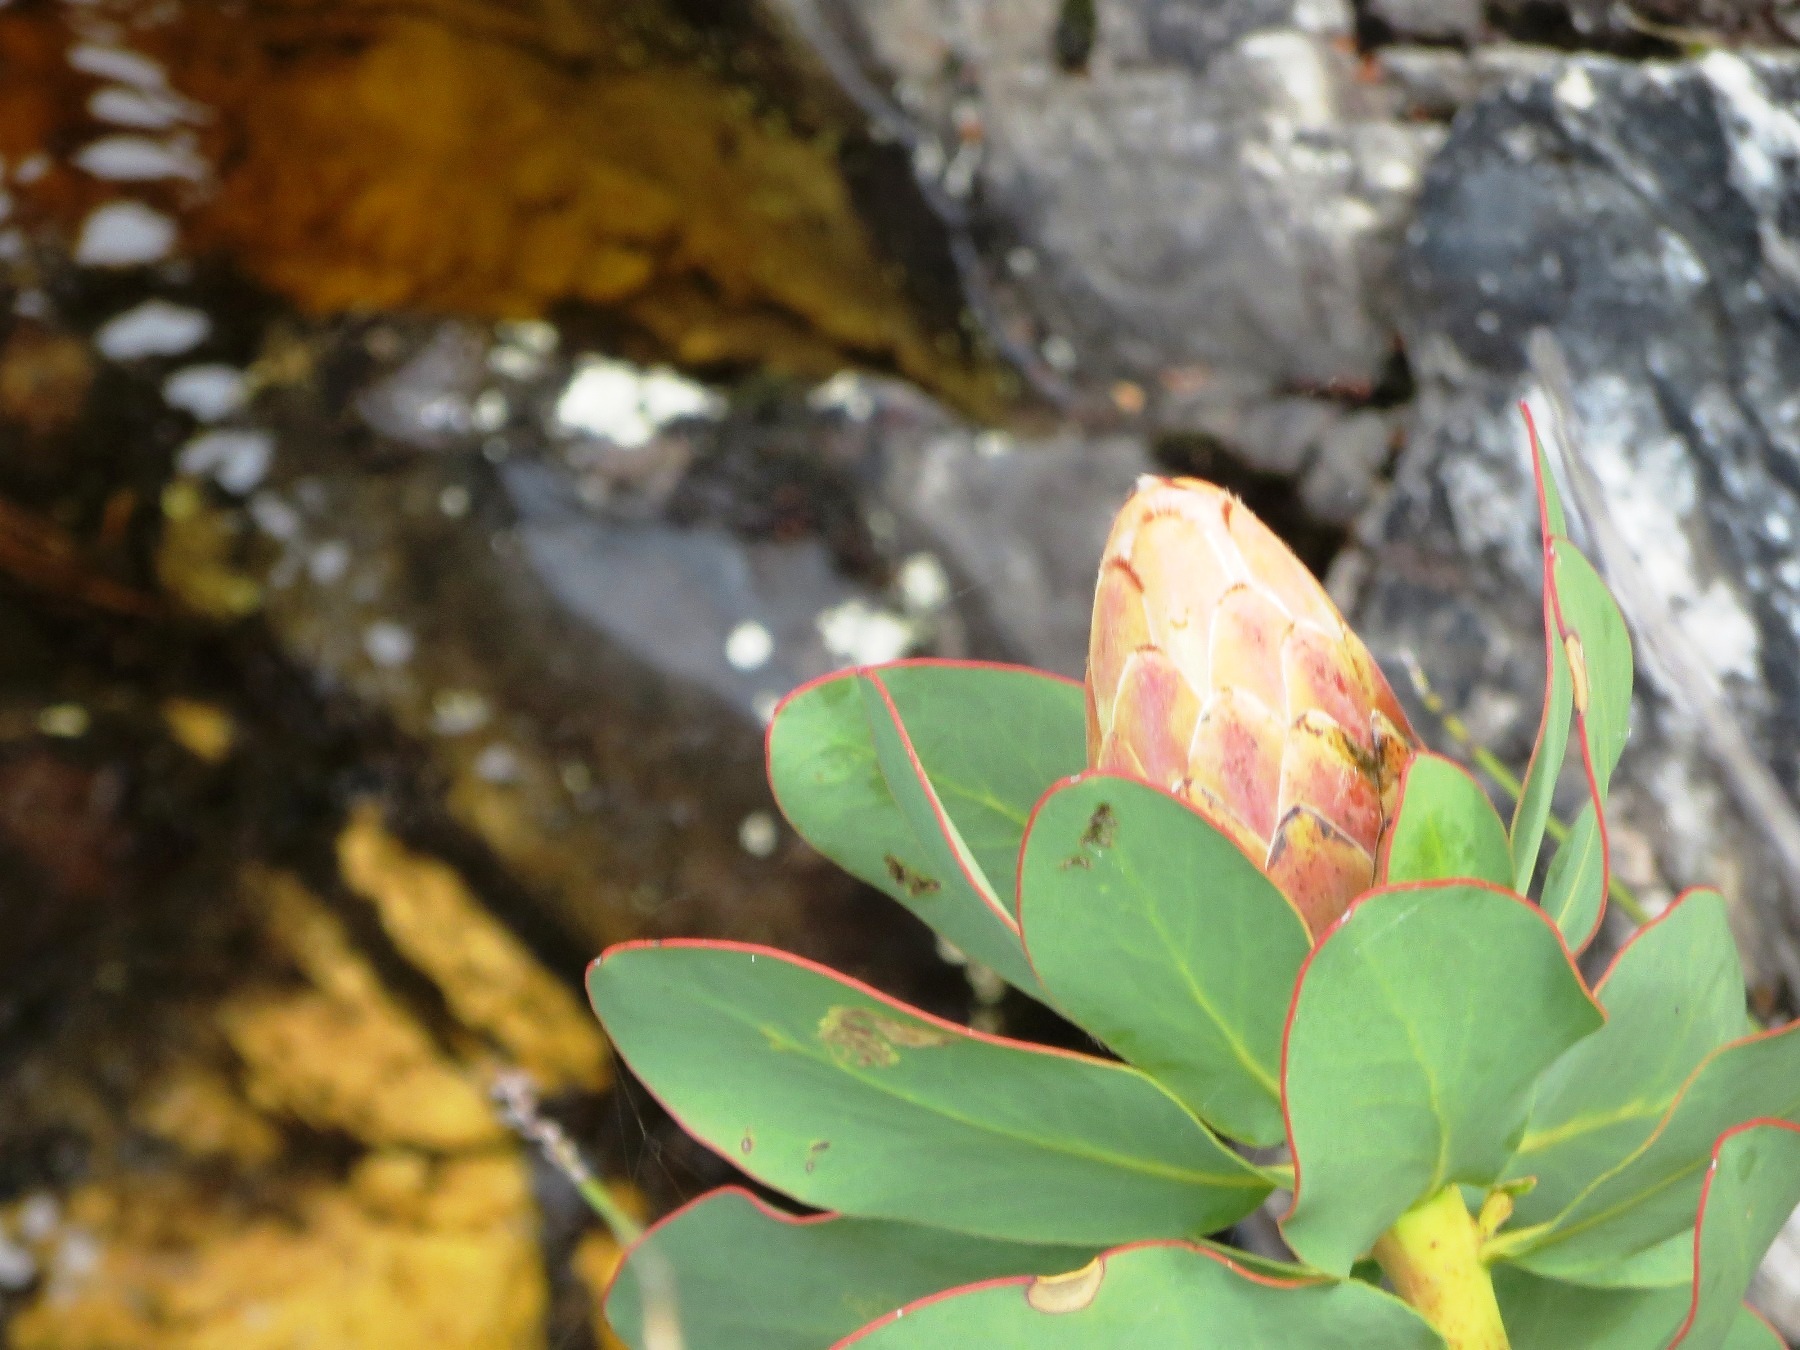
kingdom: Plantae
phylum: Tracheophyta
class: Magnoliopsida
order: Proteales
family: Proteaceae
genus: Protea
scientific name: Protea grandiceps
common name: Red sugarbush
